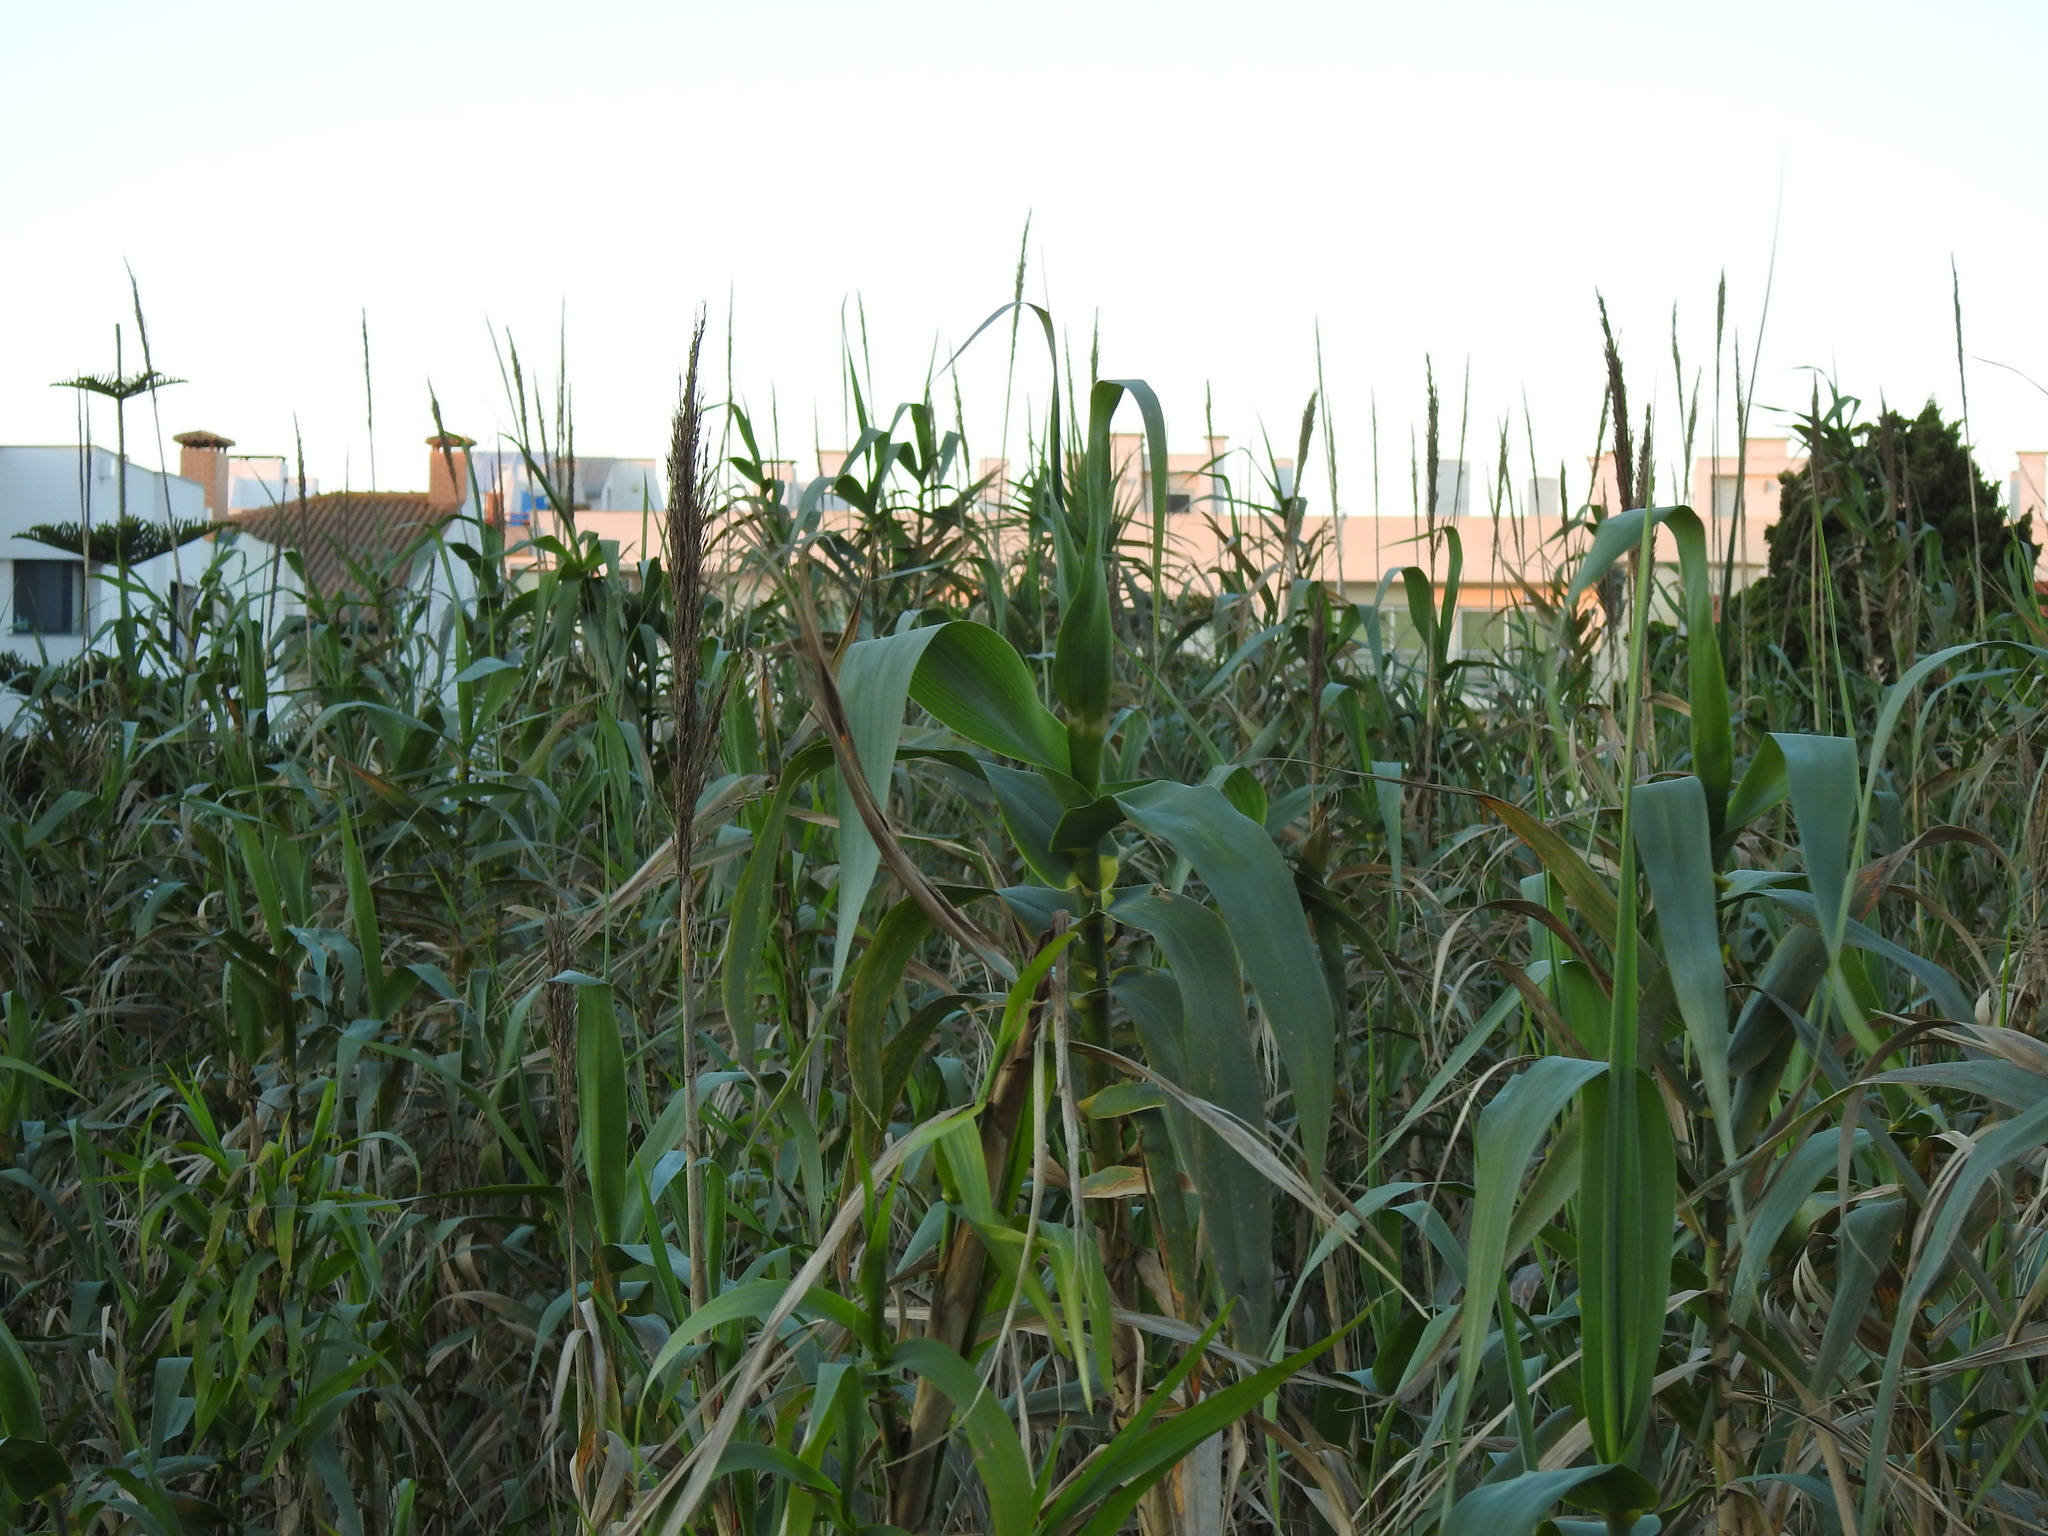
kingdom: Plantae
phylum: Tracheophyta
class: Liliopsida
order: Poales
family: Poaceae
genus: Arundo
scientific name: Arundo donax
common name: Giant reed
